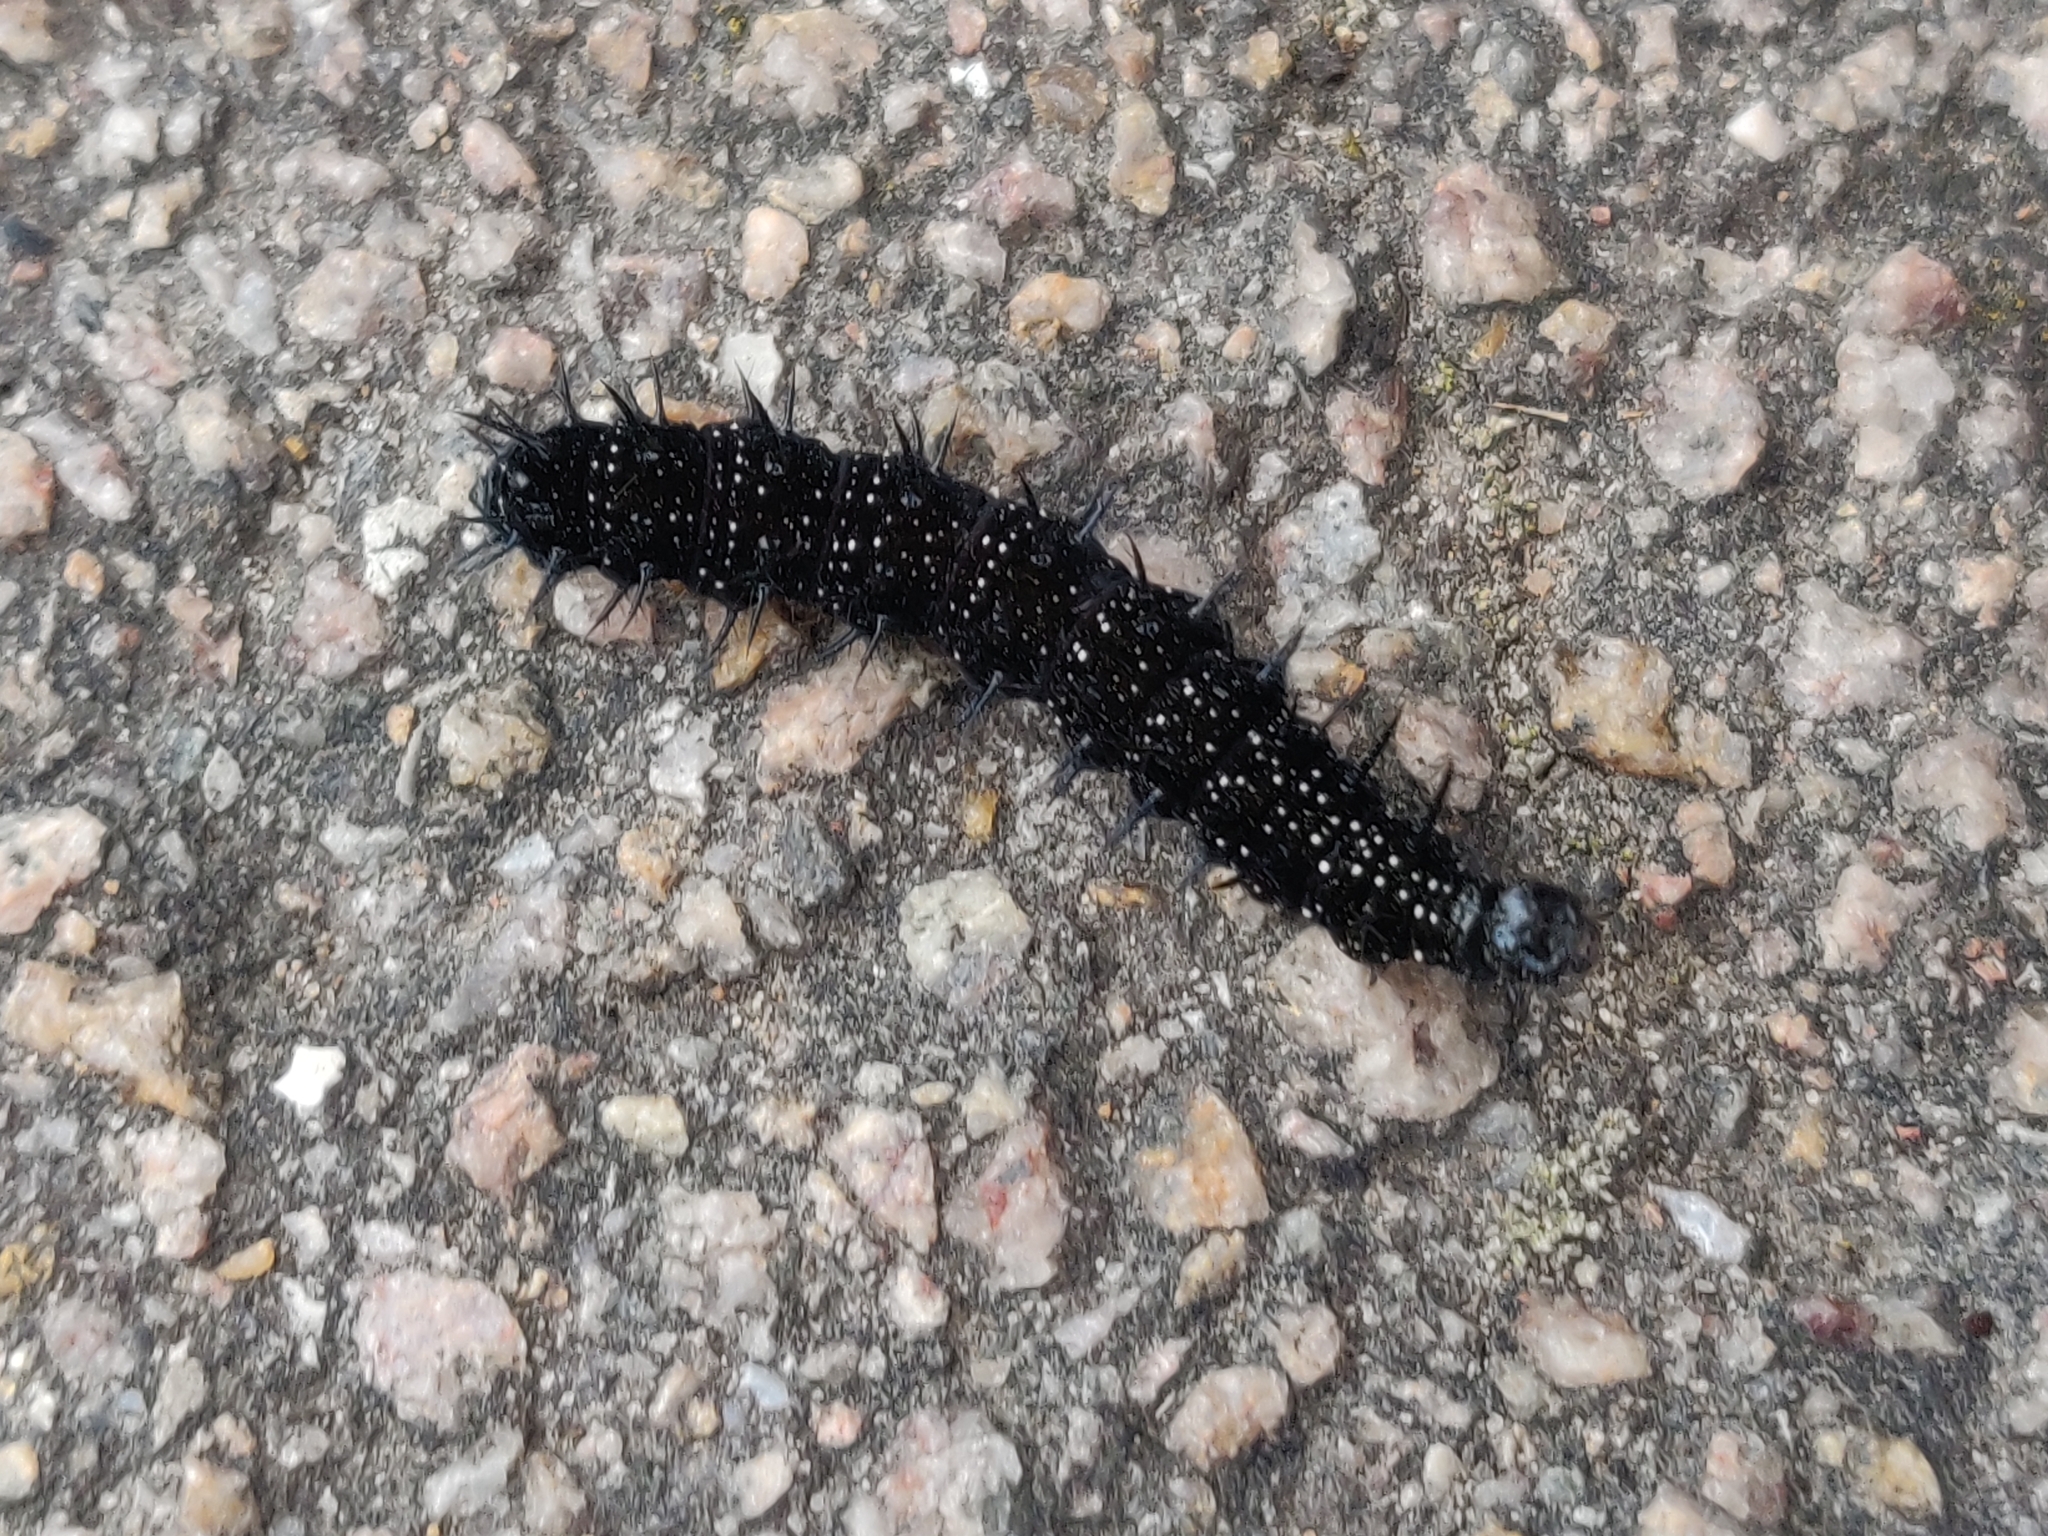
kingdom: Animalia
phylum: Arthropoda
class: Insecta
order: Lepidoptera
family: Nymphalidae
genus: Aglais
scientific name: Aglais io
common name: Peacock
